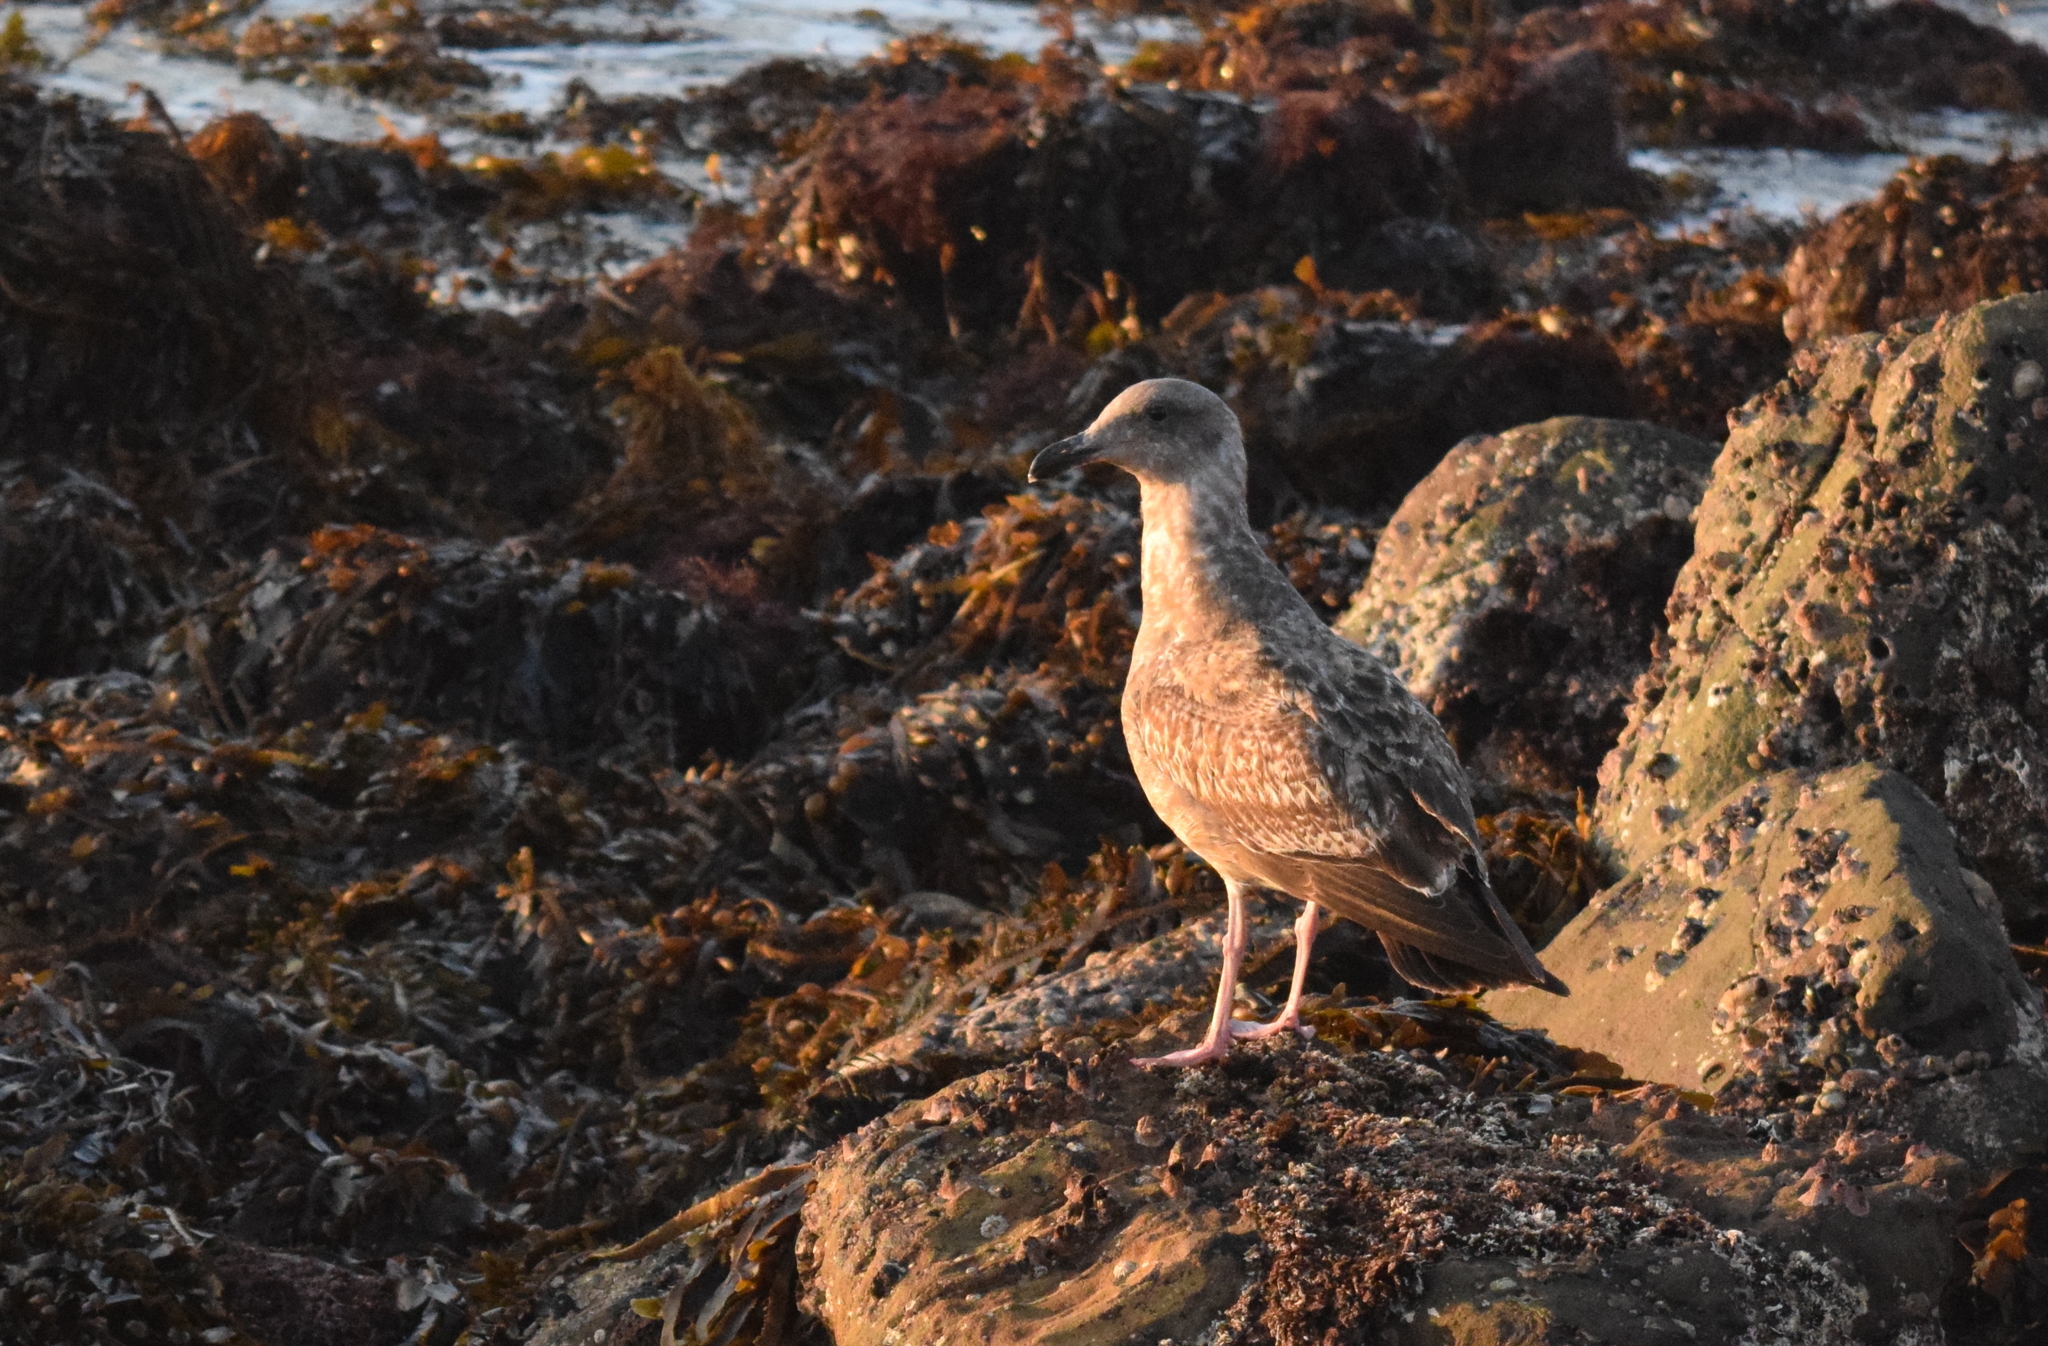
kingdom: Animalia
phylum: Chordata
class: Aves
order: Charadriiformes
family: Laridae
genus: Larus
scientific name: Larus occidentalis
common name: Western gull
